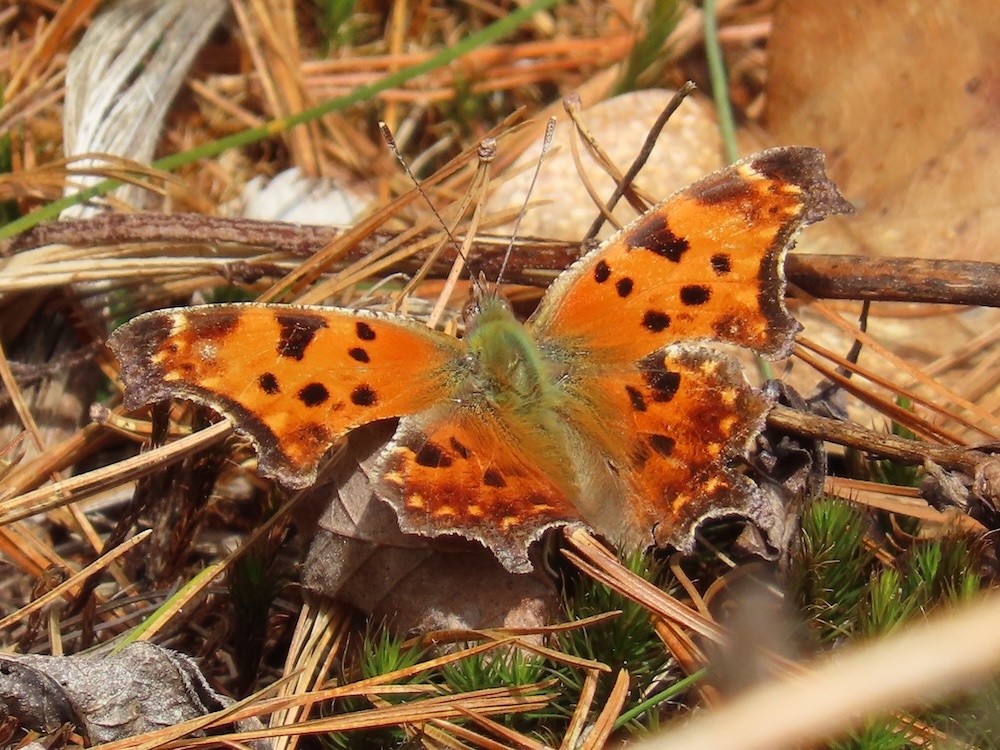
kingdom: Animalia
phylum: Arthropoda
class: Insecta
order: Lepidoptera
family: Nymphalidae
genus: Polygonia
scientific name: Polygonia comma
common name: Eastern comma
